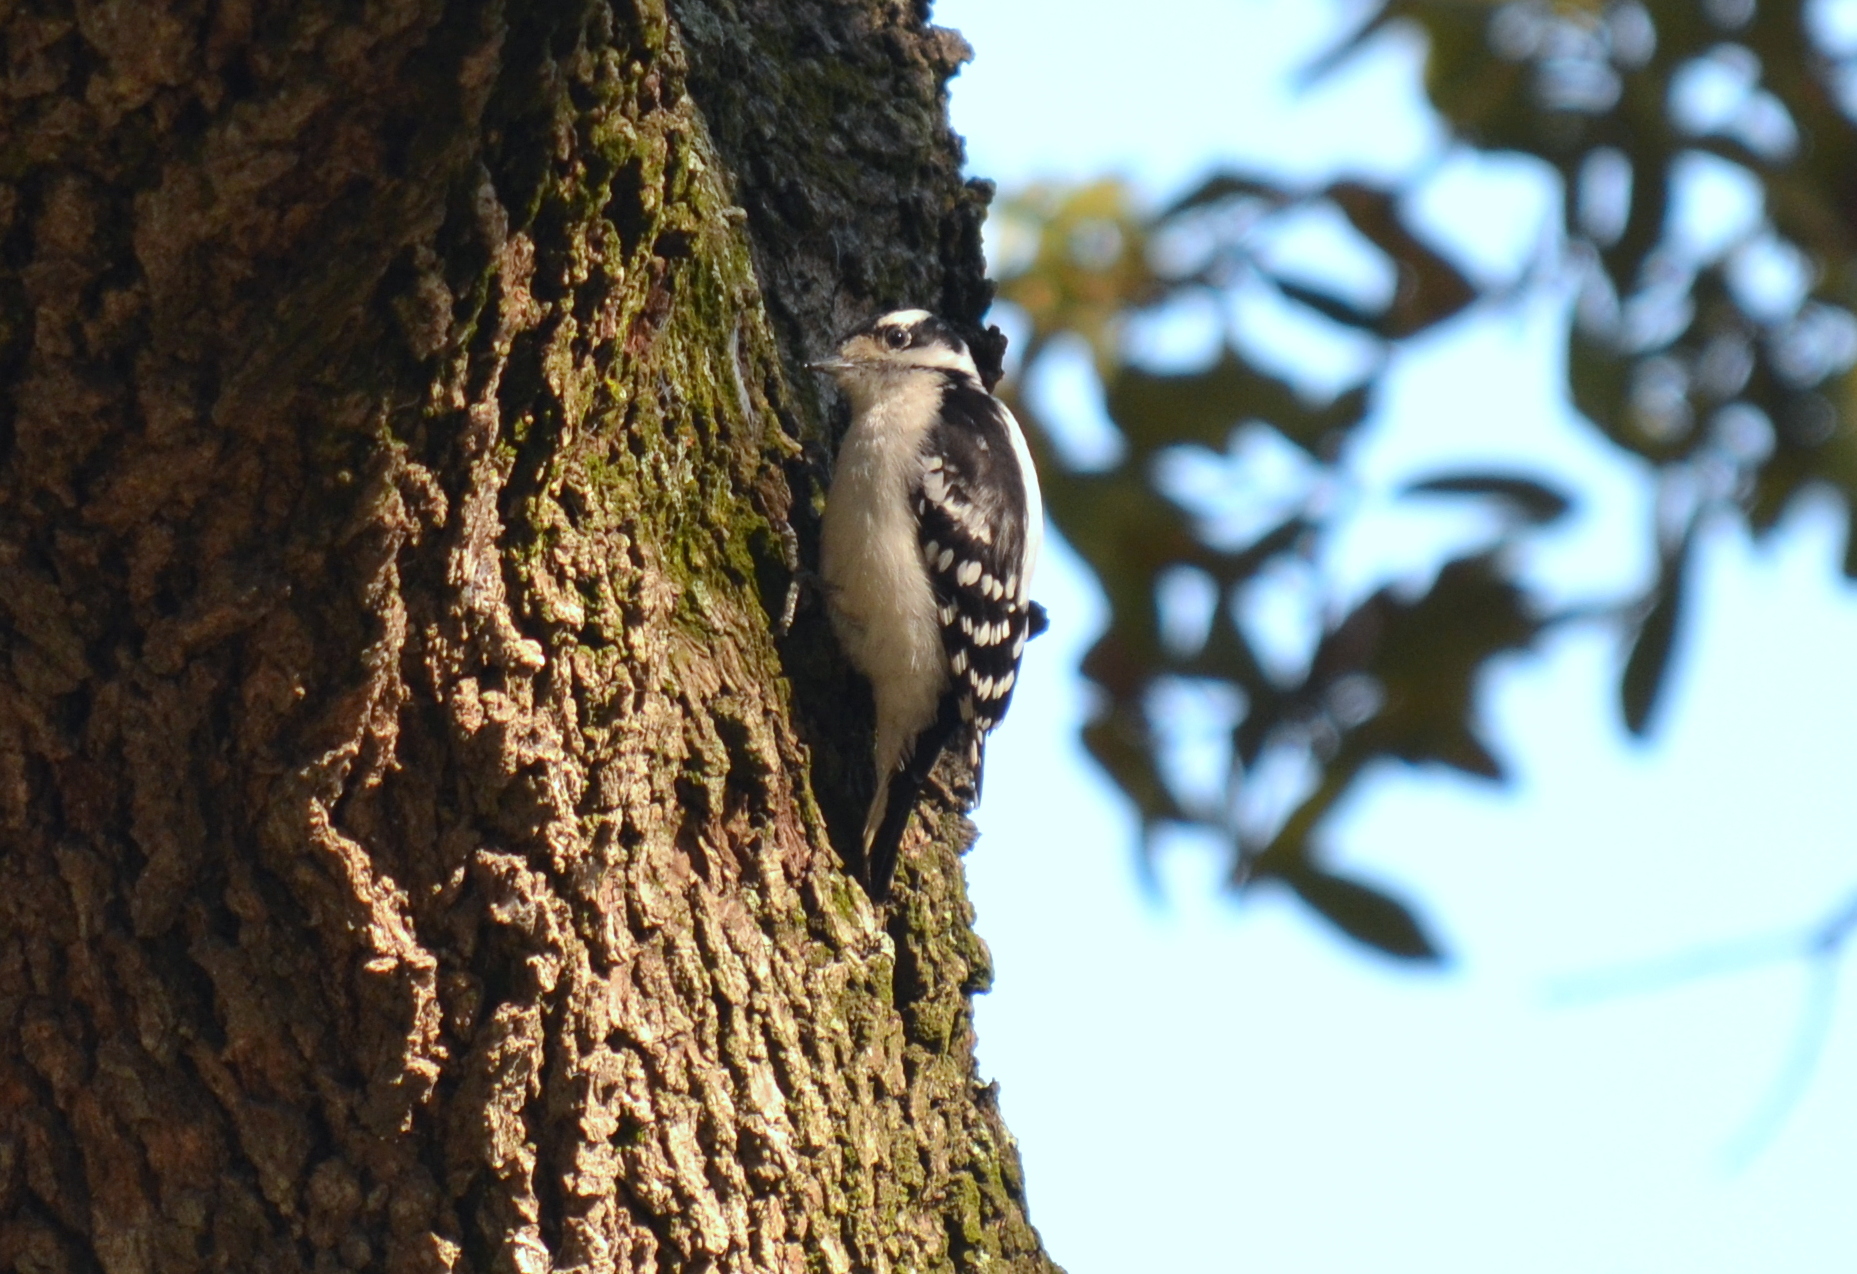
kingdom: Animalia
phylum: Chordata
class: Aves
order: Piciformes
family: Picidae
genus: Dryobates
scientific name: Dryobates pubescens
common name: Downy woodpecker
